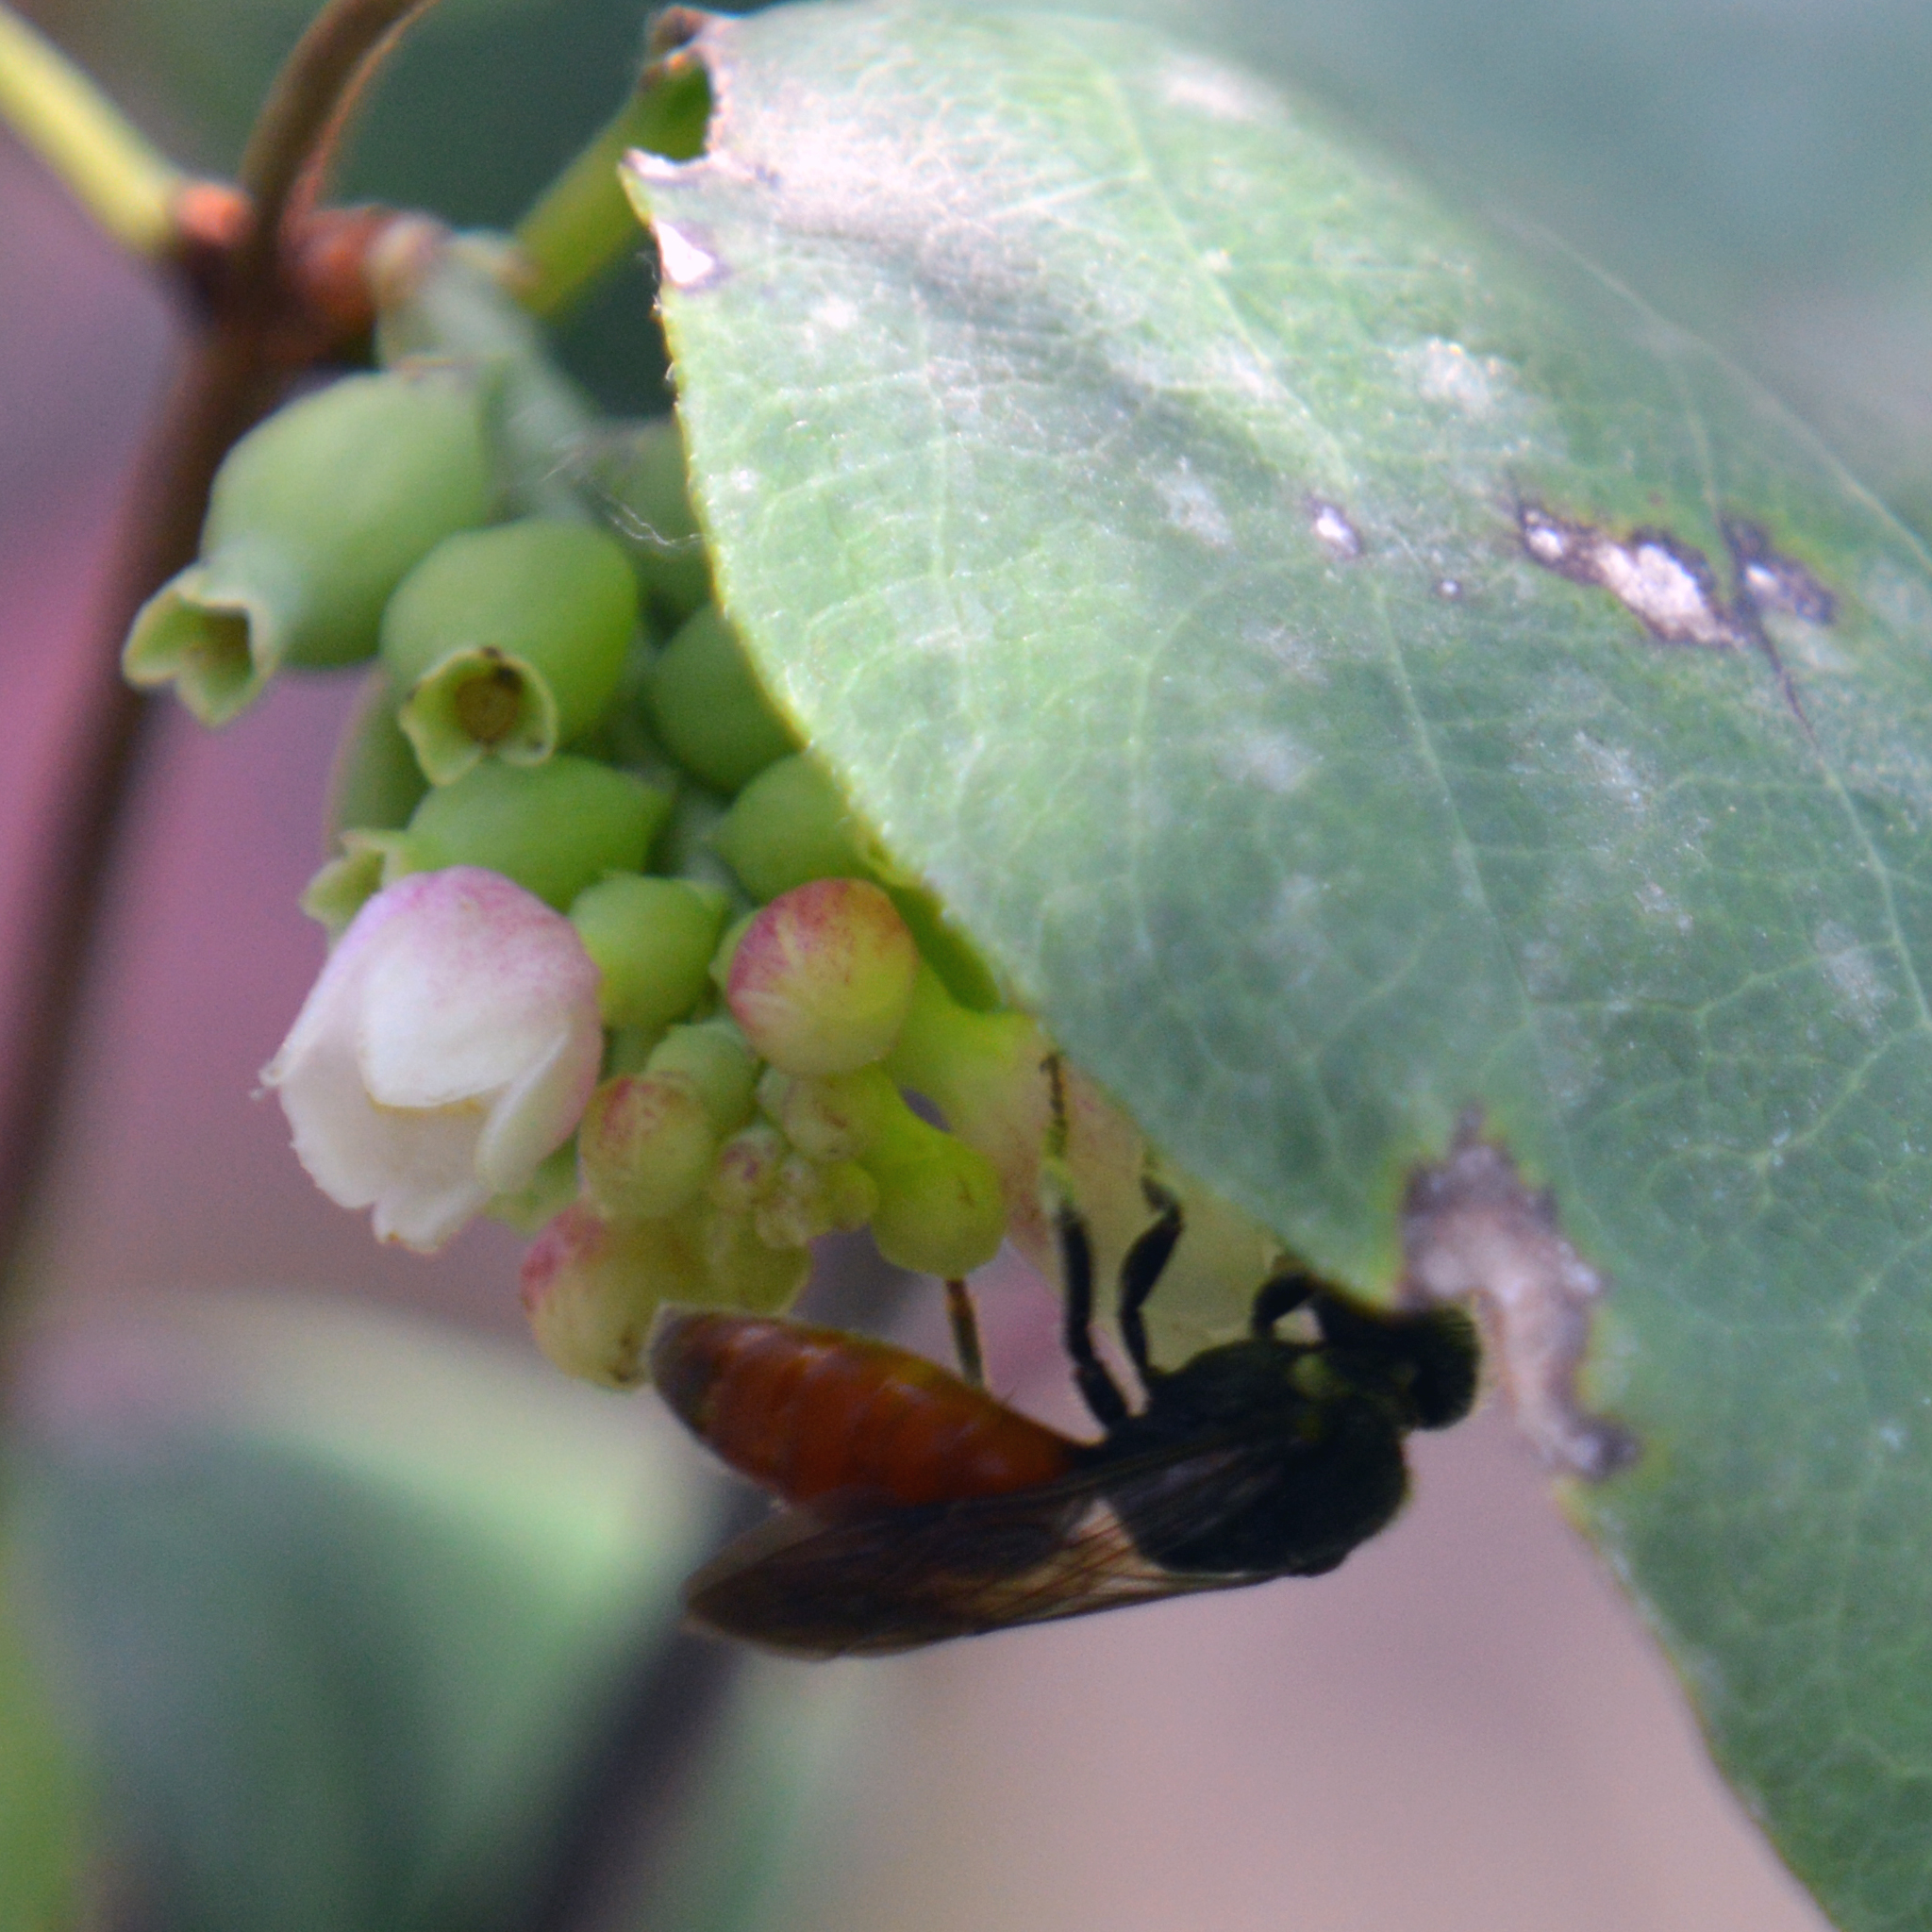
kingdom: Animalia
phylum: Arthropoda
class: Insecta
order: Hymenoptera
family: Halictidae
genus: Sphecodes
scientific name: Sphecodes albilabris
